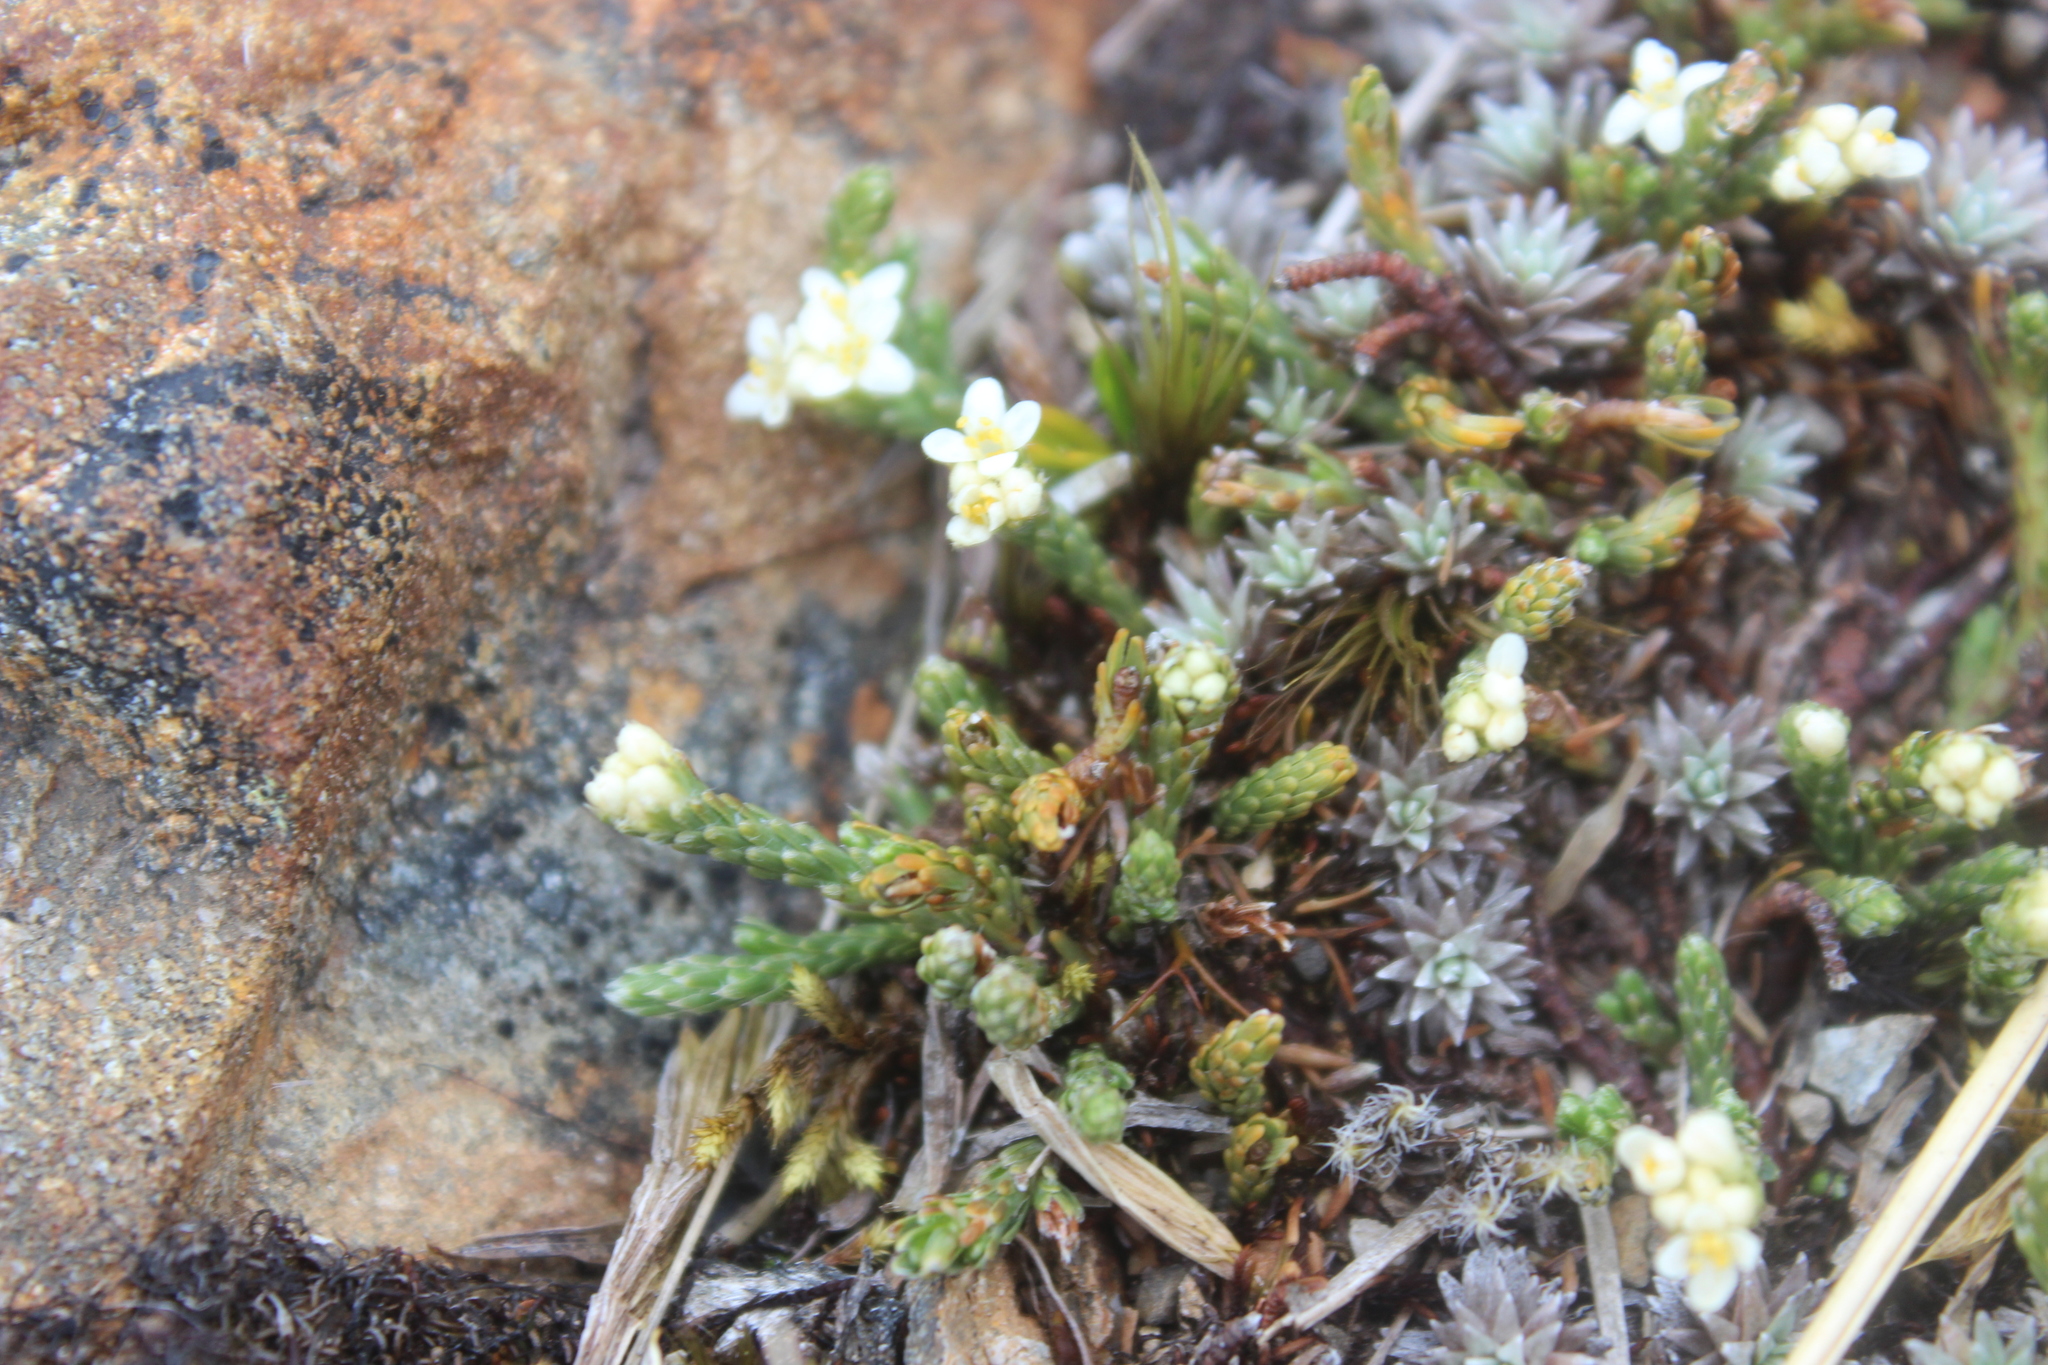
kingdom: Plantae
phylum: Tracheophyta
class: Magnoliopsida
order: Malvales
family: Thymelaeaceae
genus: Kelleria
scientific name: Kelleria dieffenbachii
